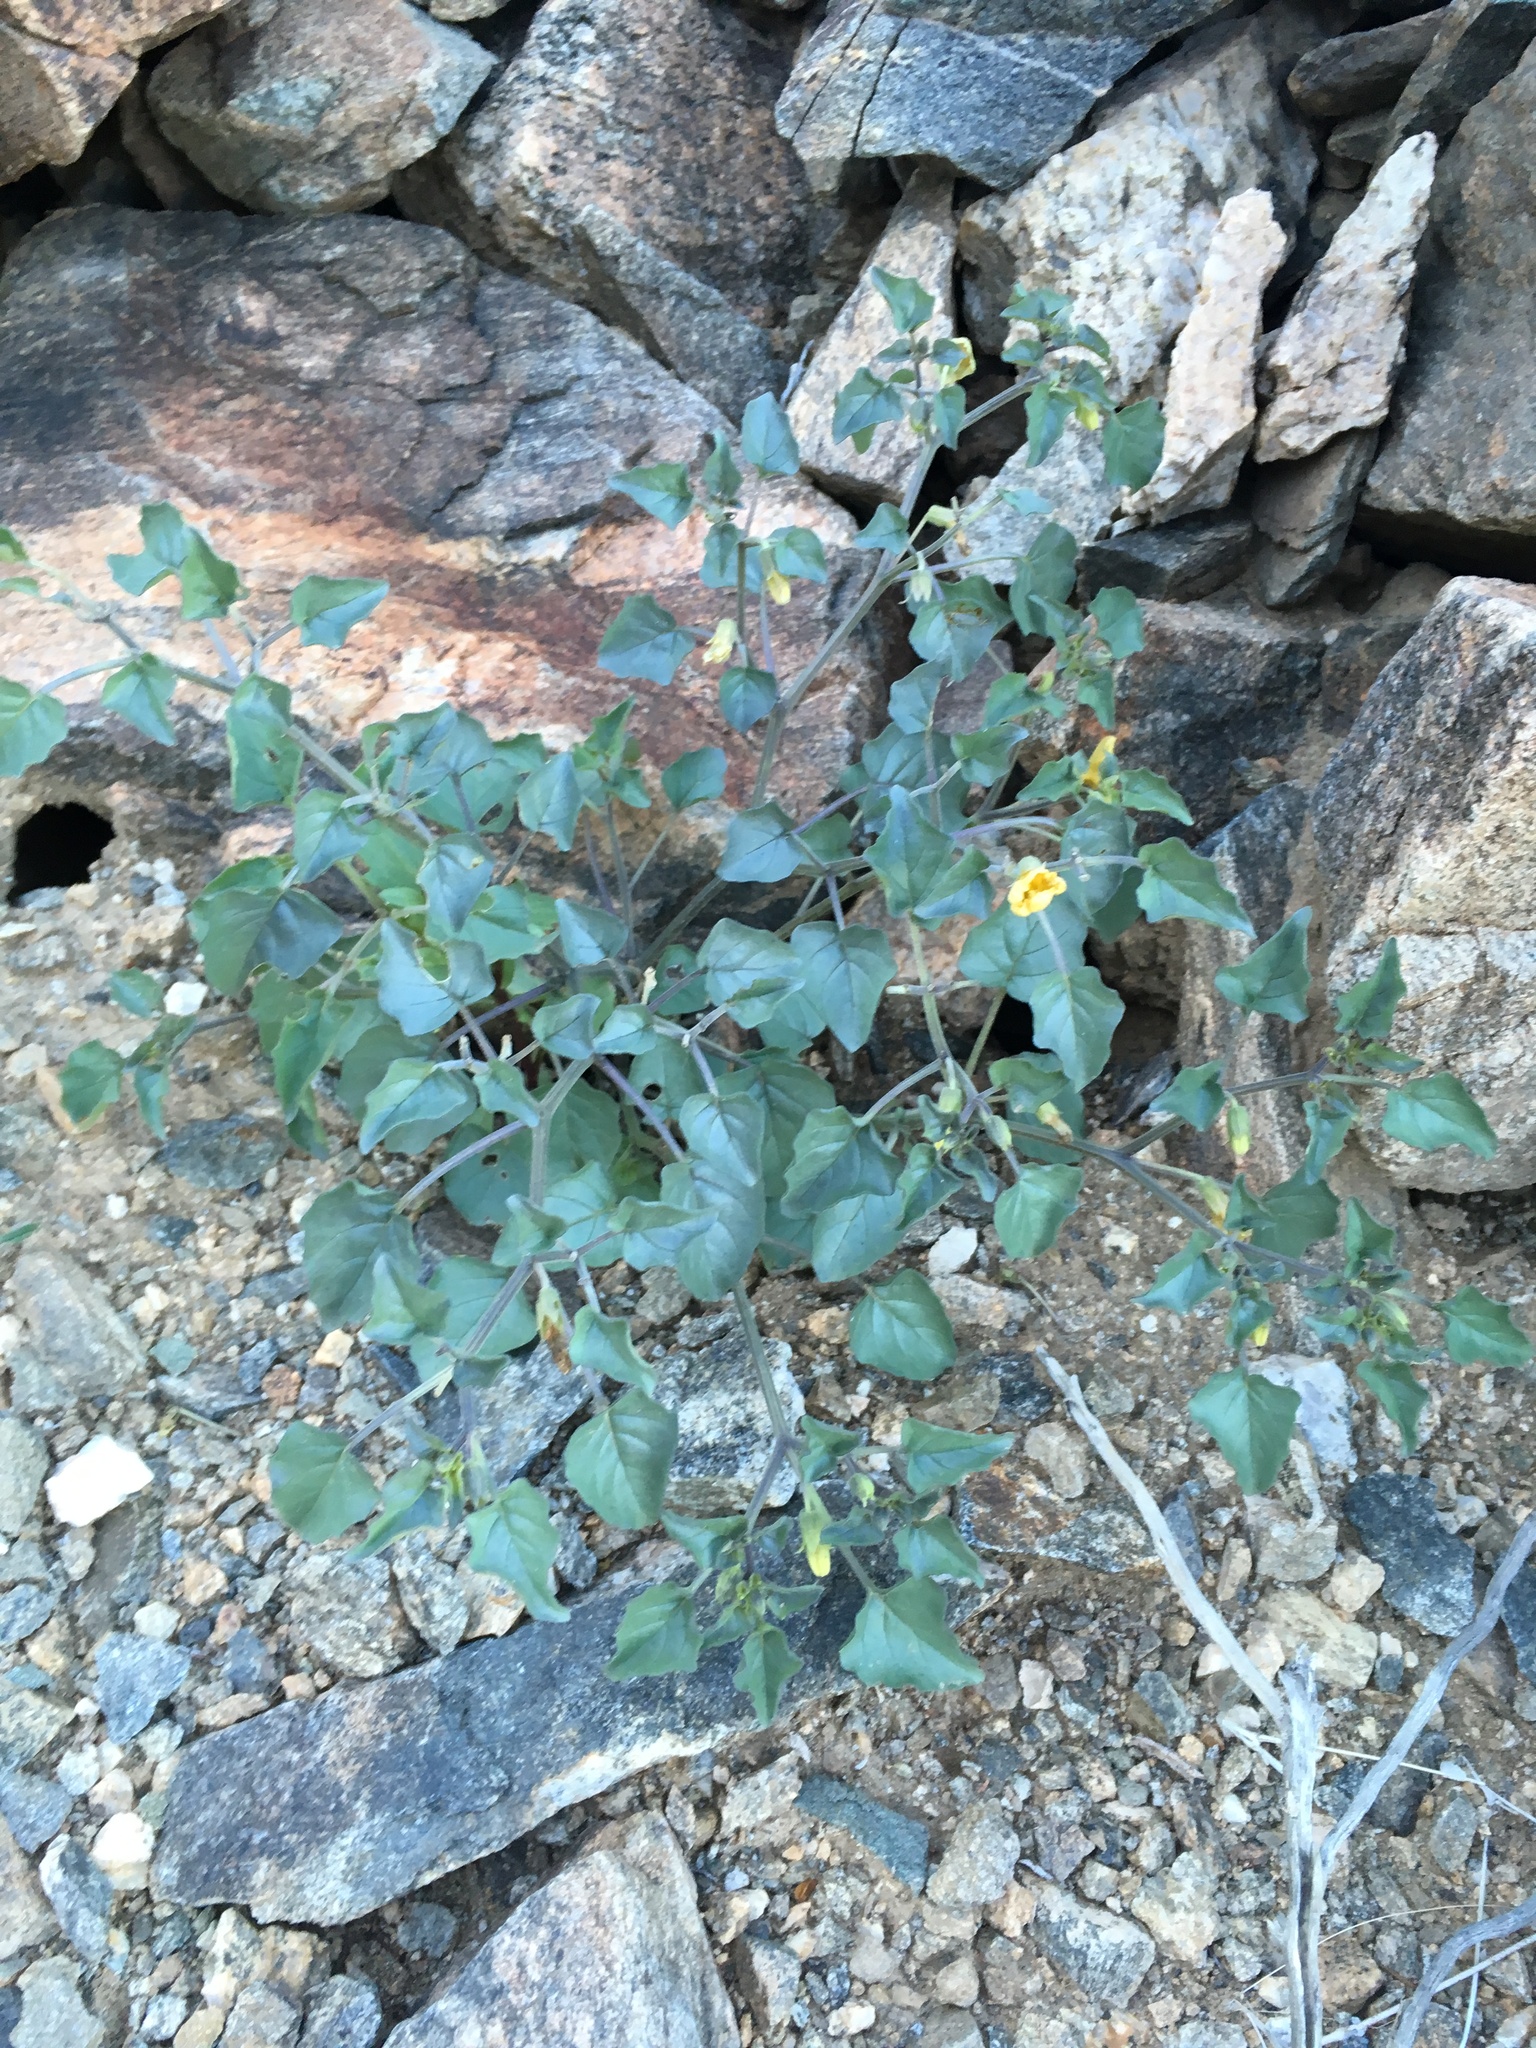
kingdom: Plantae
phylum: Tracheophyta
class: Magnoliopsida
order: Solanales
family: Solanaceae
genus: Physalis
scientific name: Physalis crassifolia
